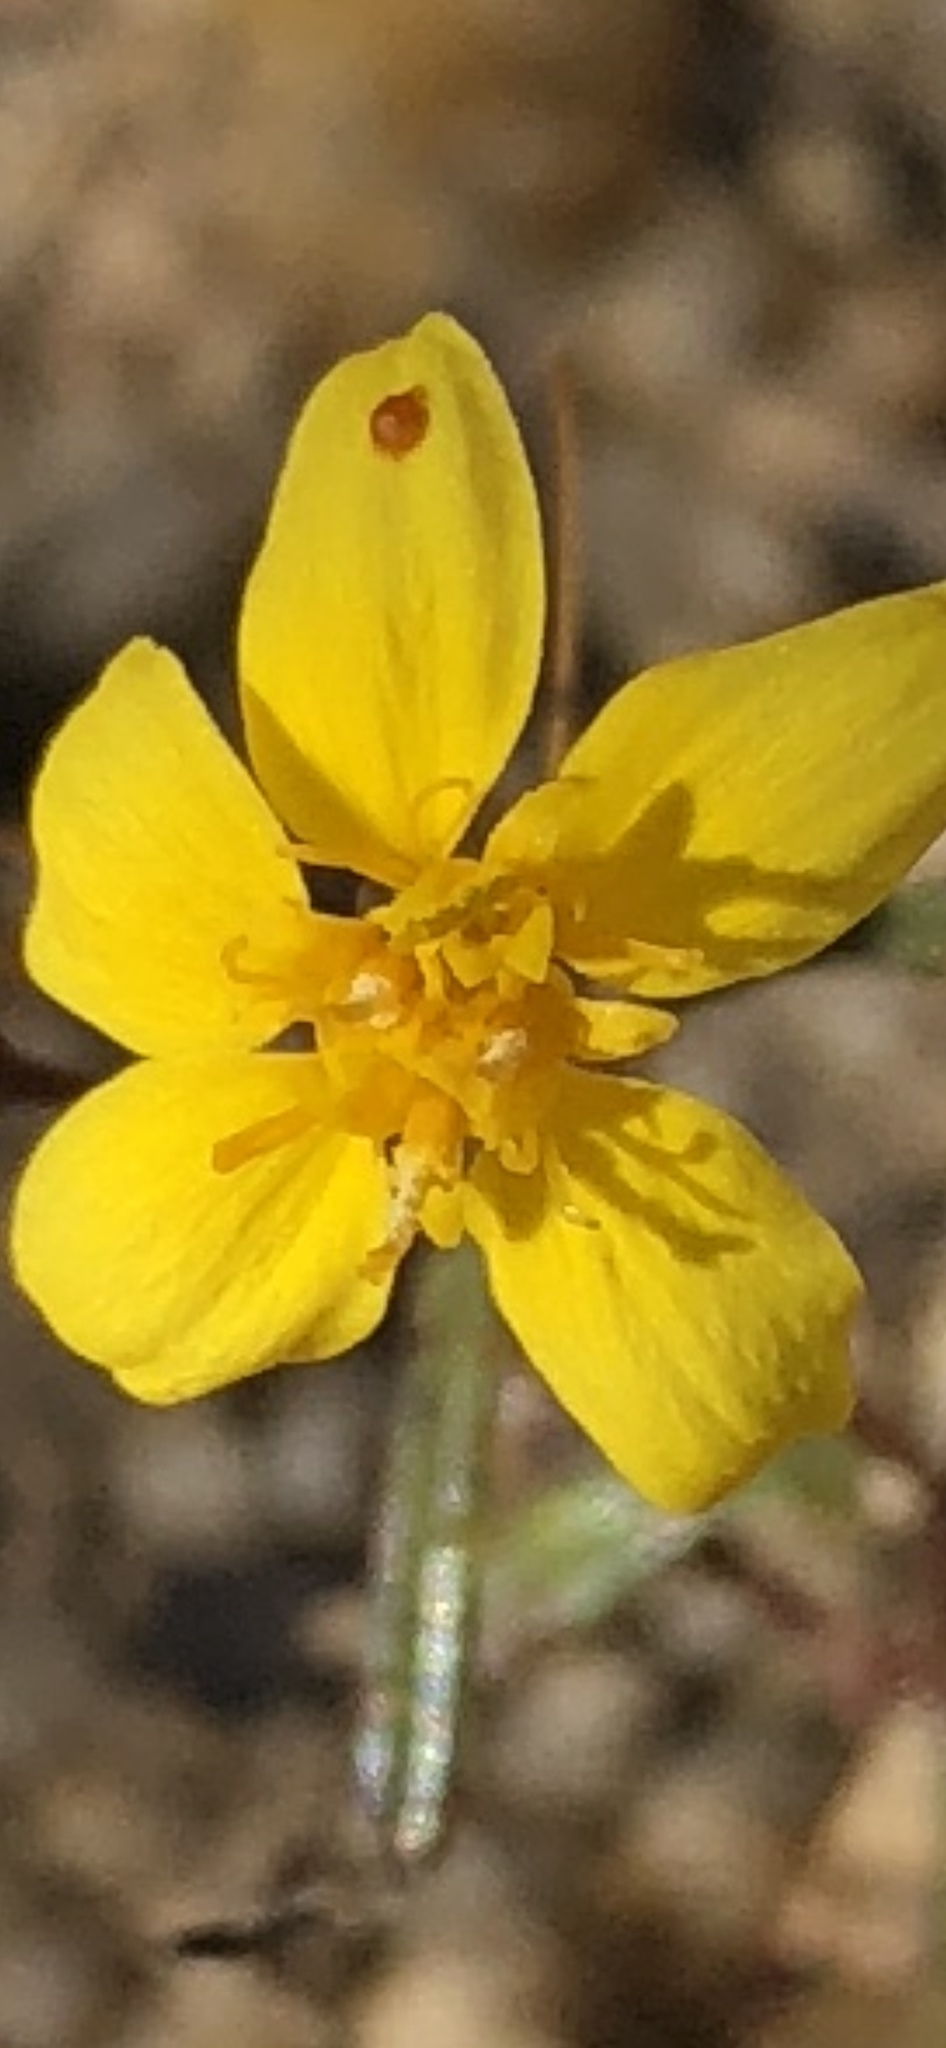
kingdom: Plantae
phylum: Tracheophyta
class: Magnoliopsida
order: Asterales
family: Asteraceae
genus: Pectis
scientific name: Pectis papposa
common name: Many-bristle chinchweed
